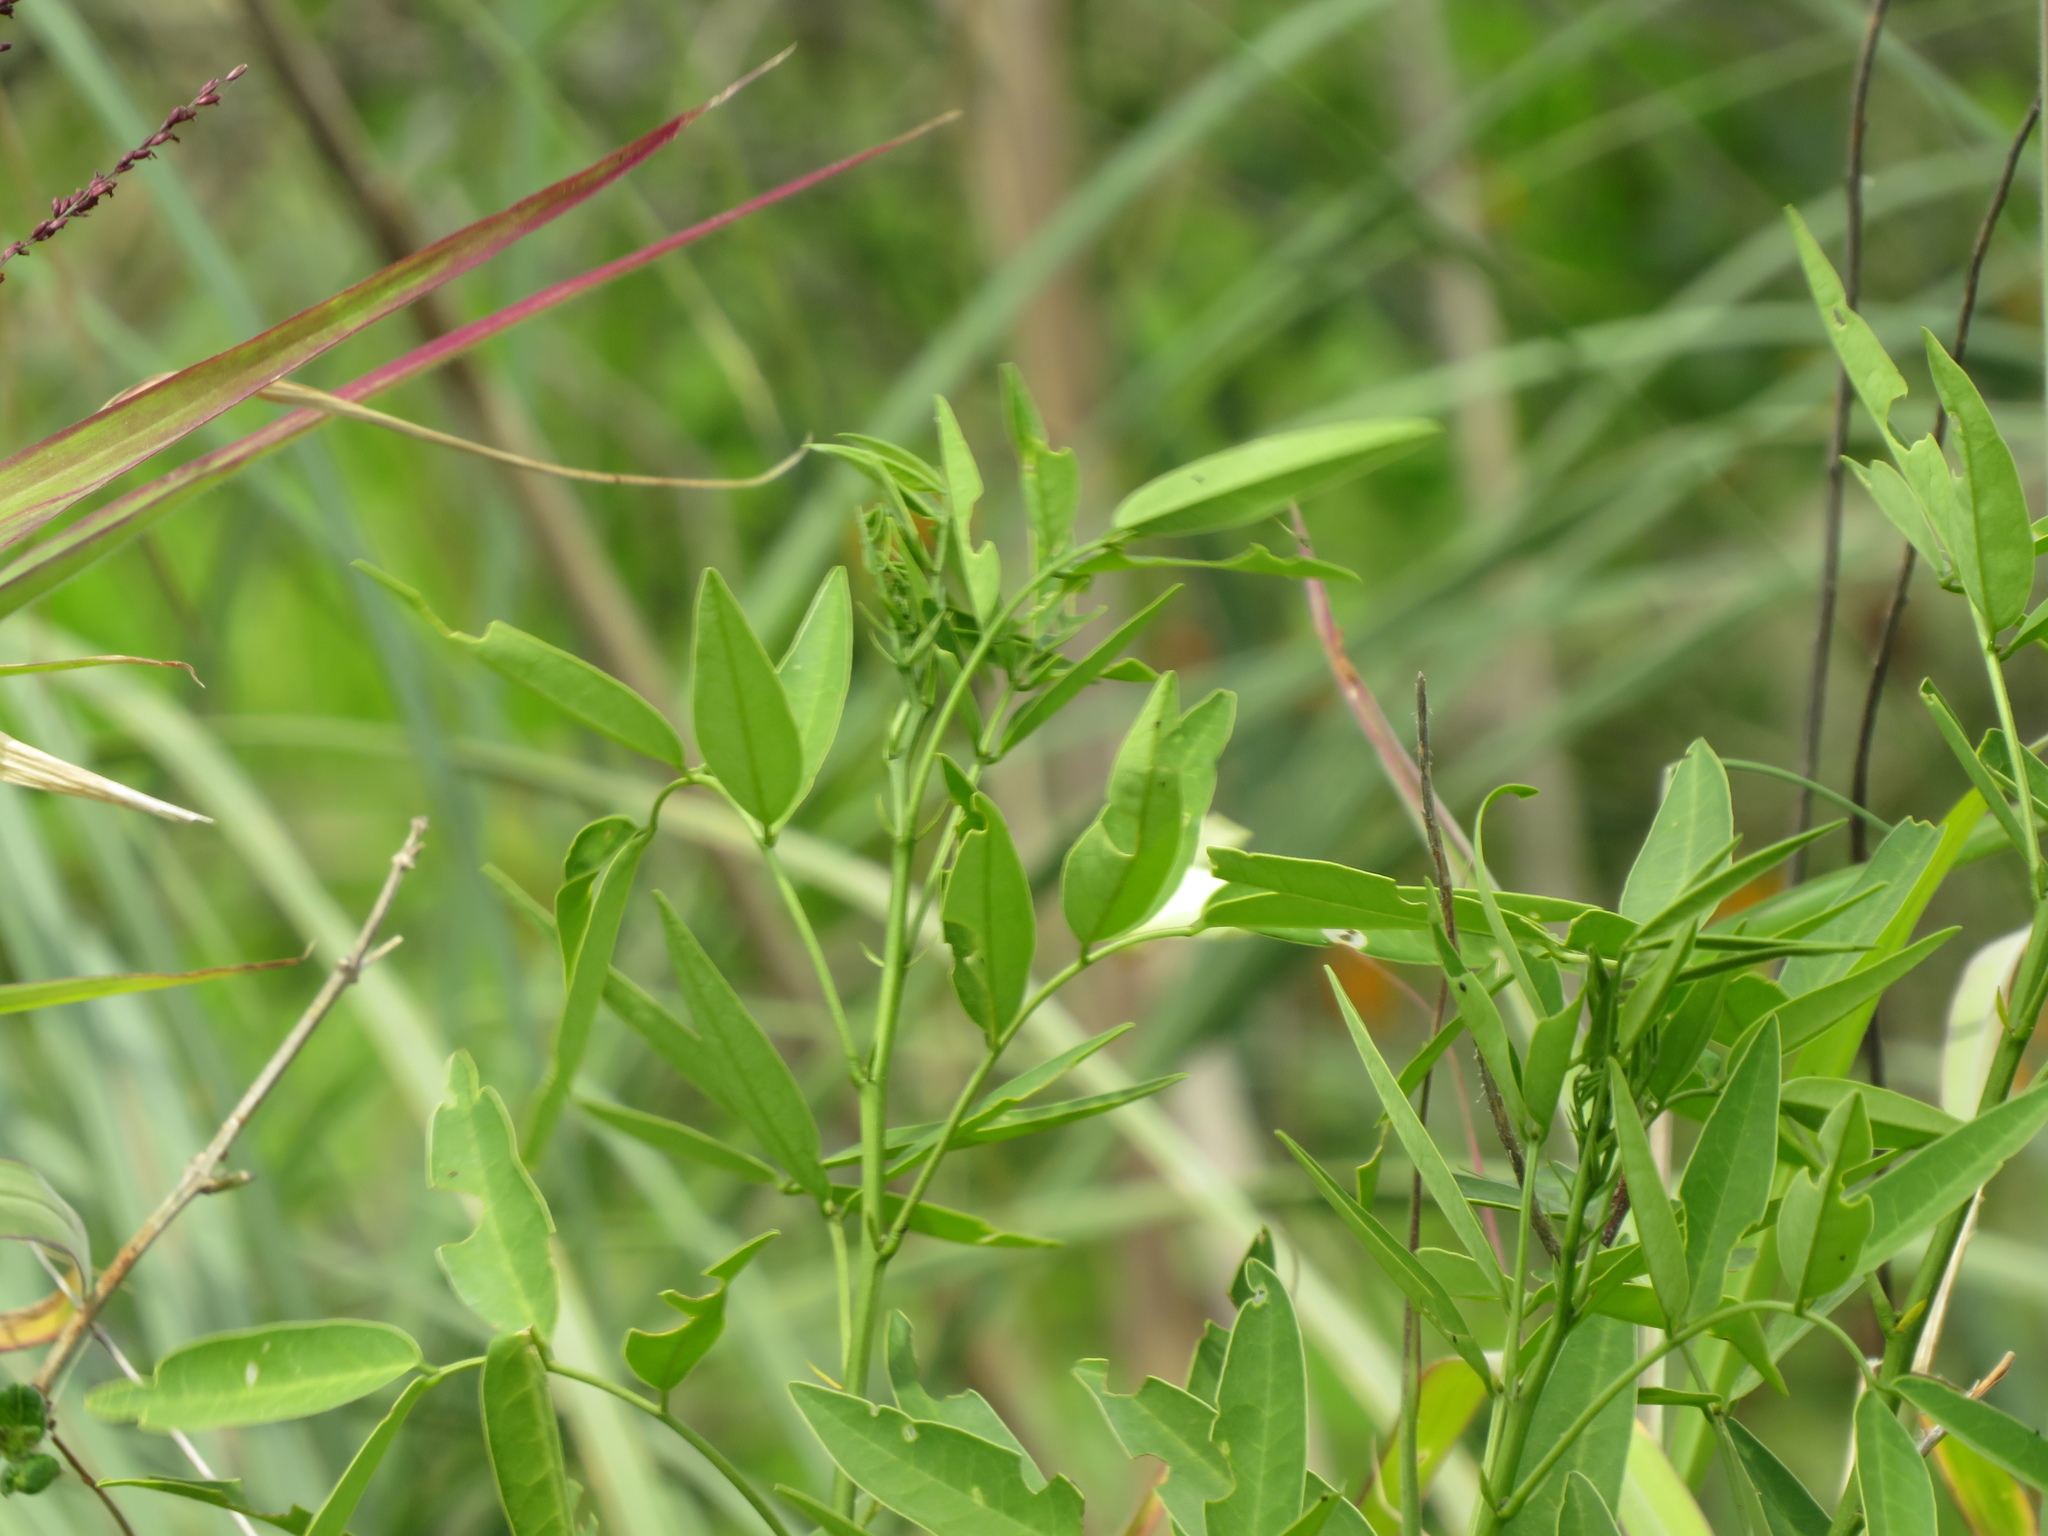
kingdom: Plantae
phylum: Tracheophyta
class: Magnoliopsida
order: Fabales
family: Fabaceae
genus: Senna
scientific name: Senna corymbosa
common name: Argentine senna
